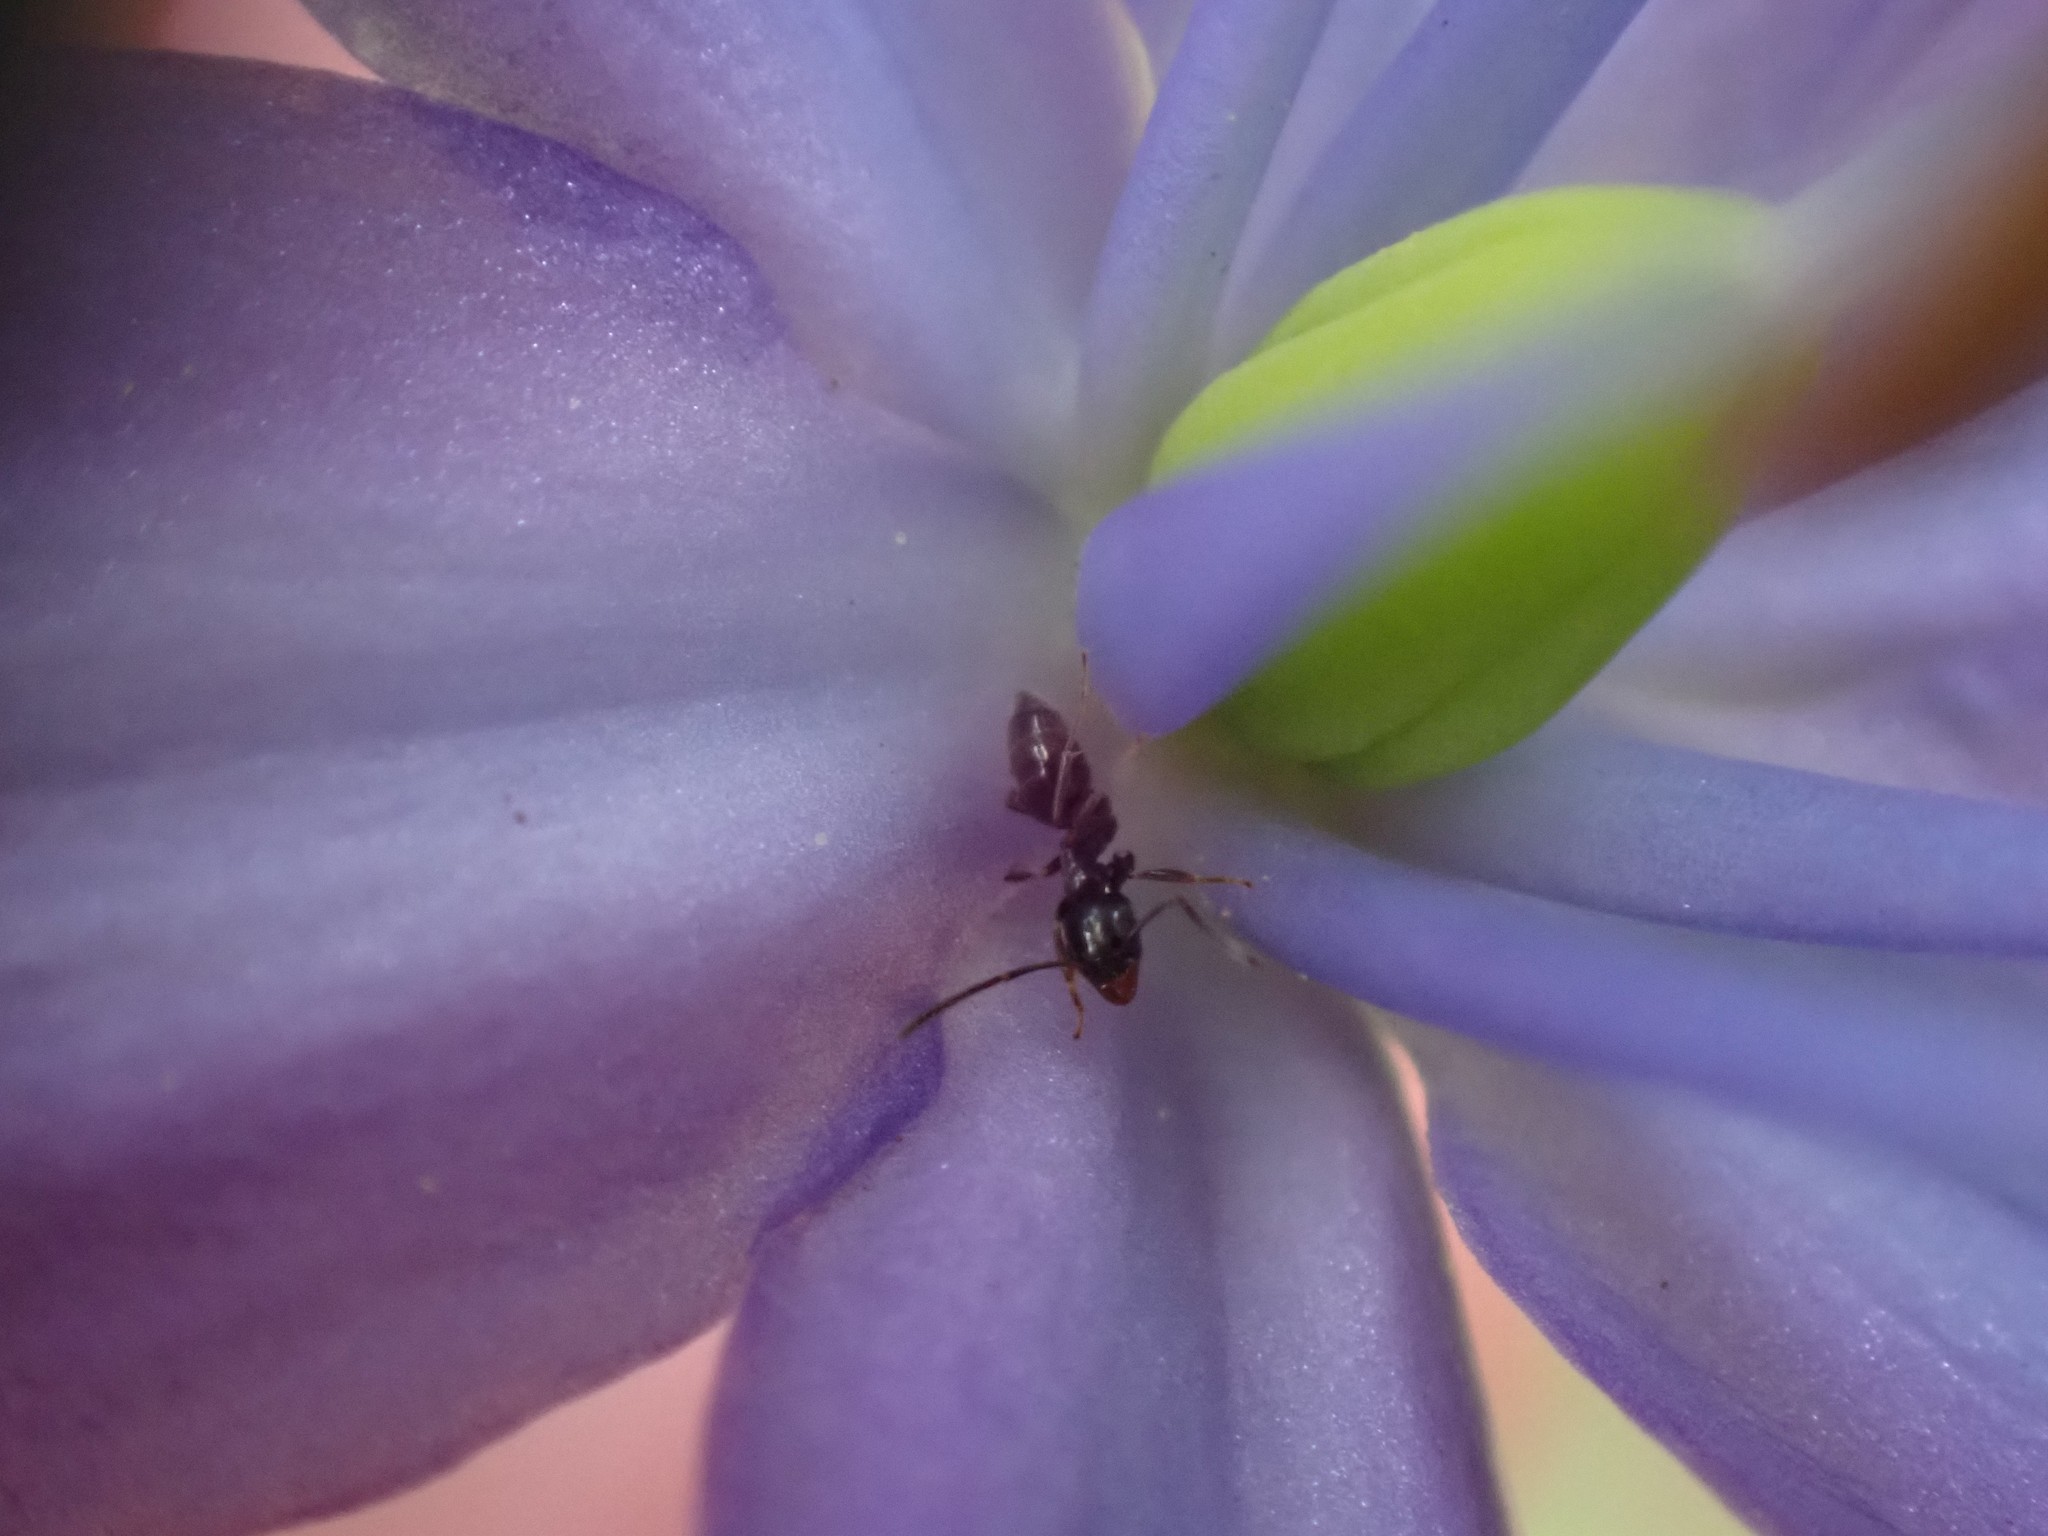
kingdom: Animalia
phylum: Arthropoda
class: Insecta
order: Hymenoptera
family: Formicidae
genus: Tapinoma
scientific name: Tapinoma sessile
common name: Odorous house ant
